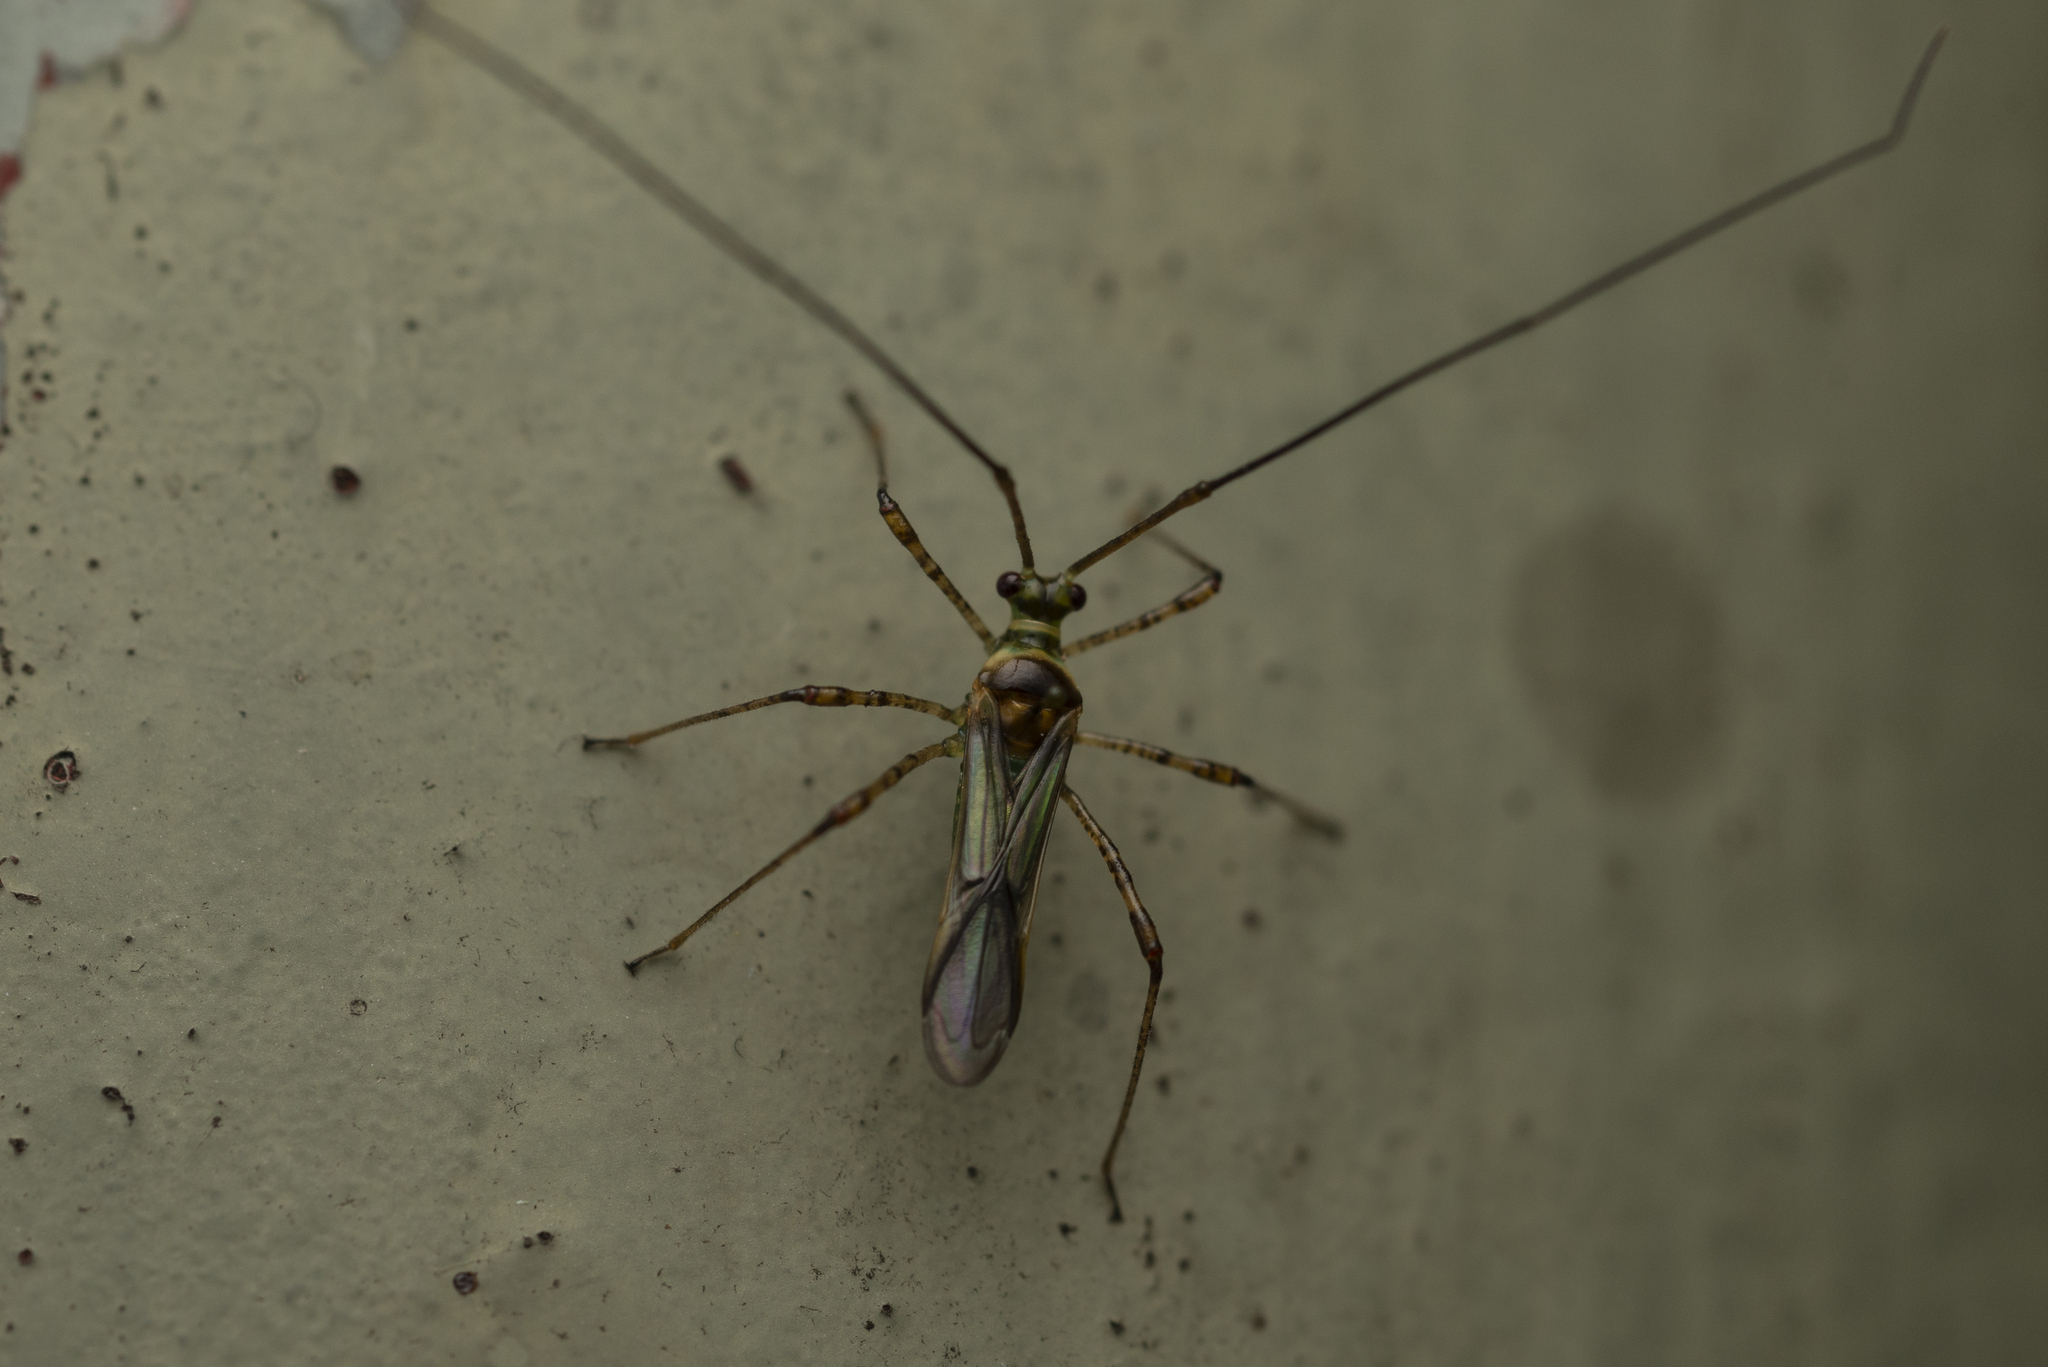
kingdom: Animalia
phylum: Arthropoda
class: Insecta
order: Hemiptera
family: Miridae
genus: Helopeltis
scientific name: Helopeltis theivora
